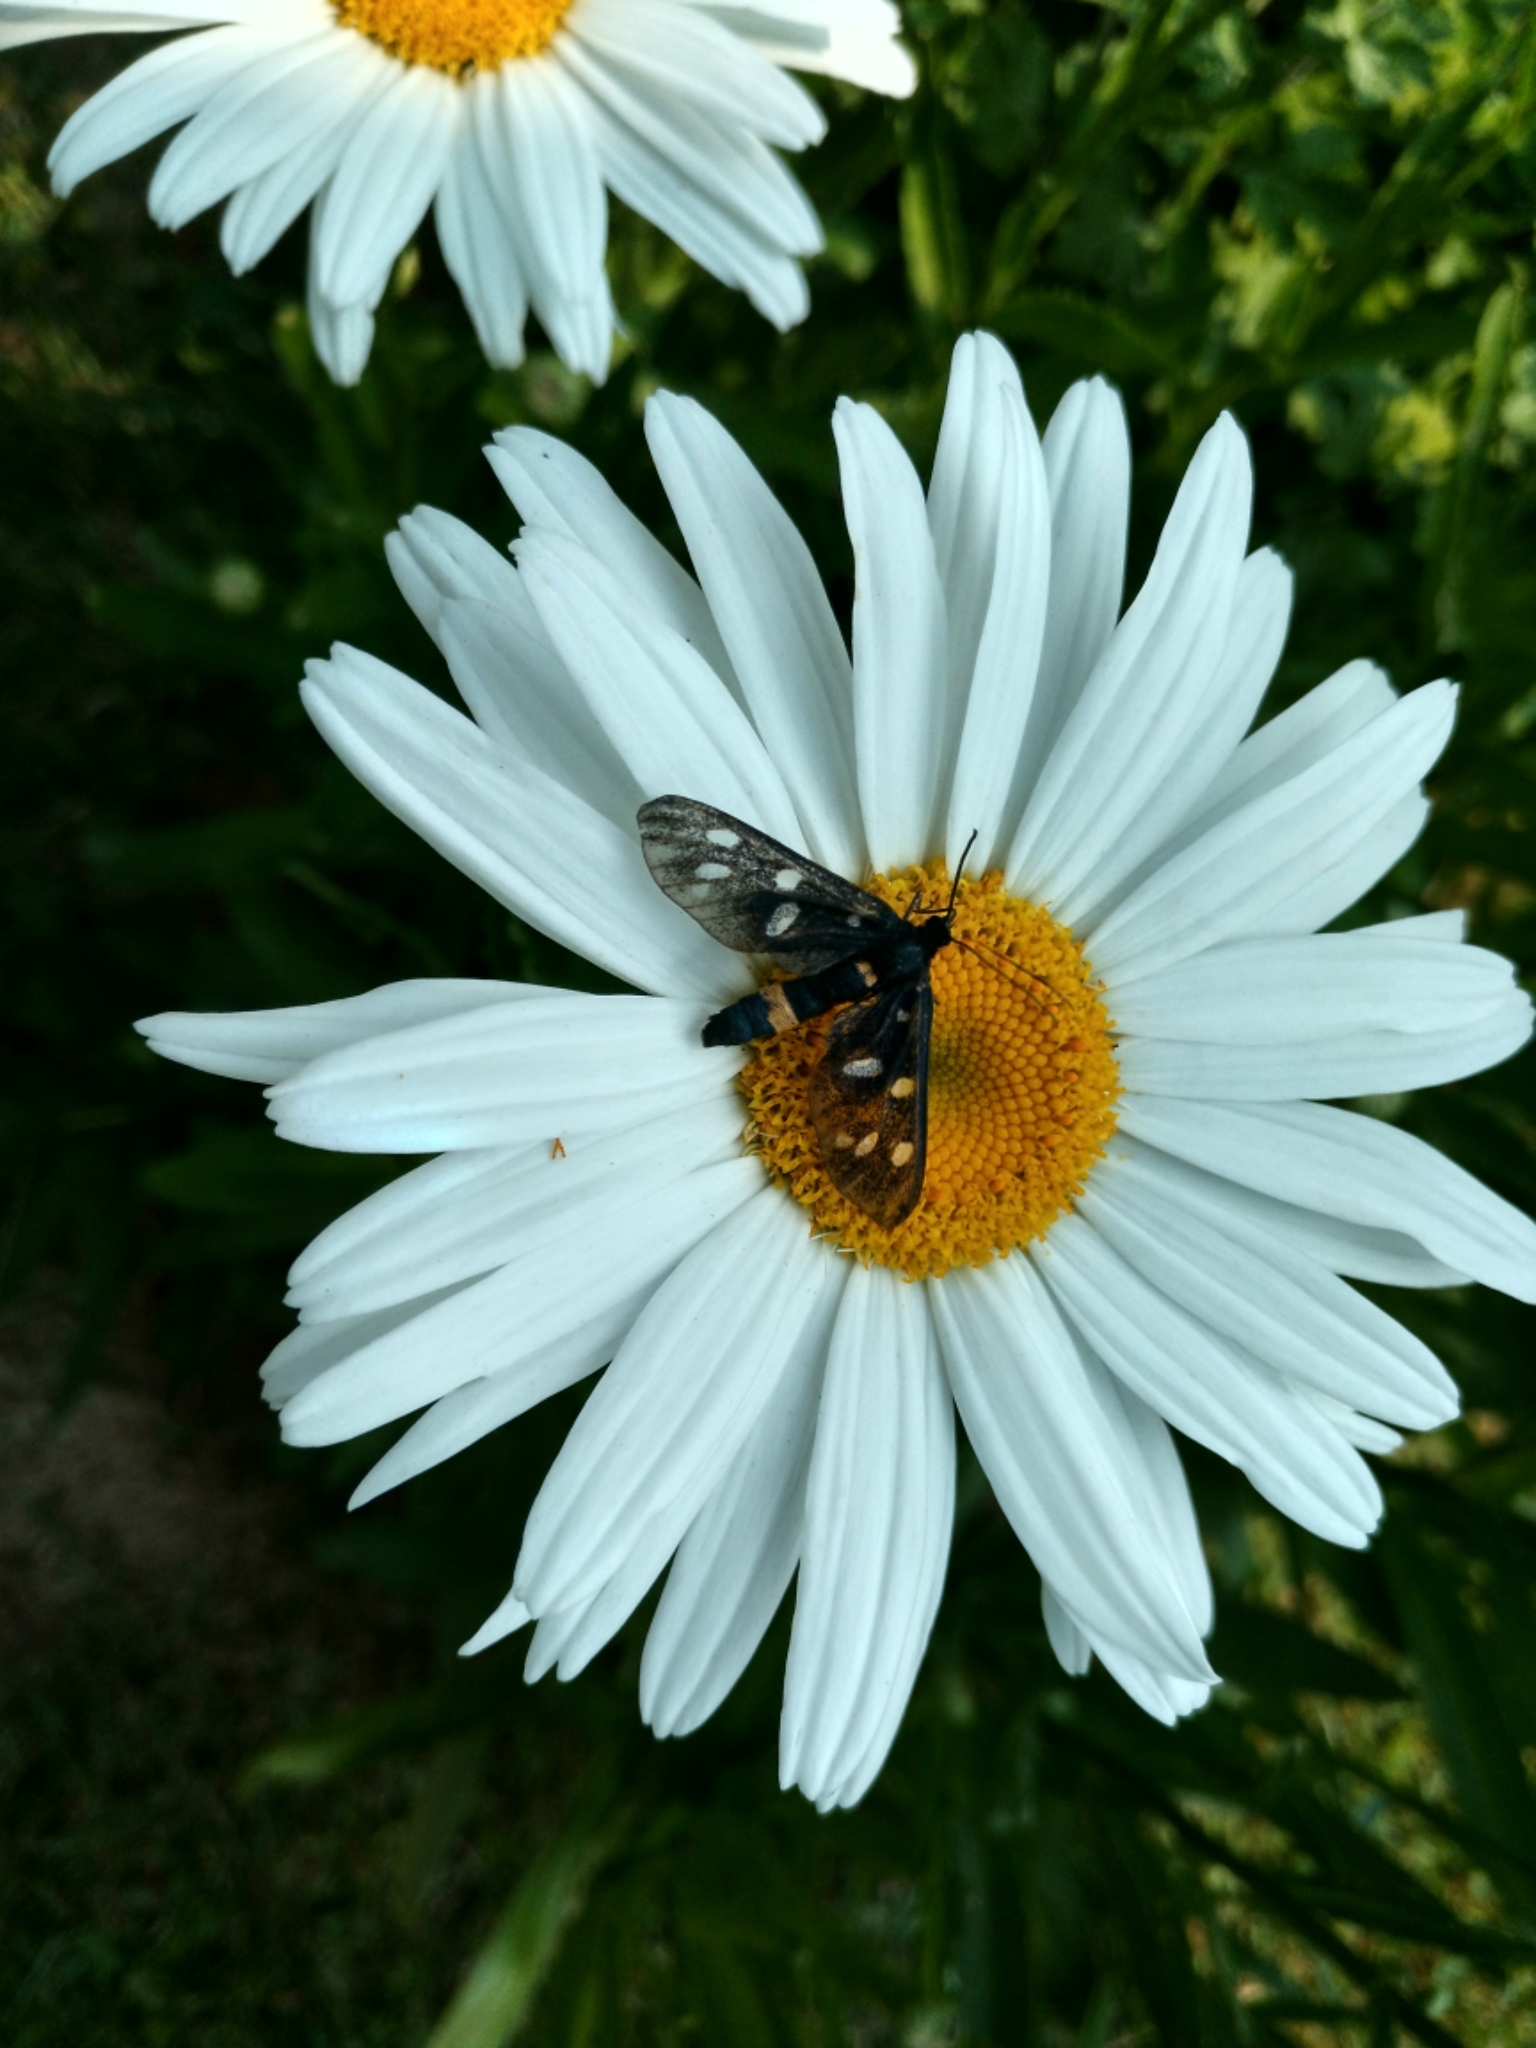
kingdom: Animalia
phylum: Arthropoda
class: Insecta
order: Lepidoptera
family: Erebidae
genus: Amata
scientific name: Amata phegea
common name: Nine-spotted
